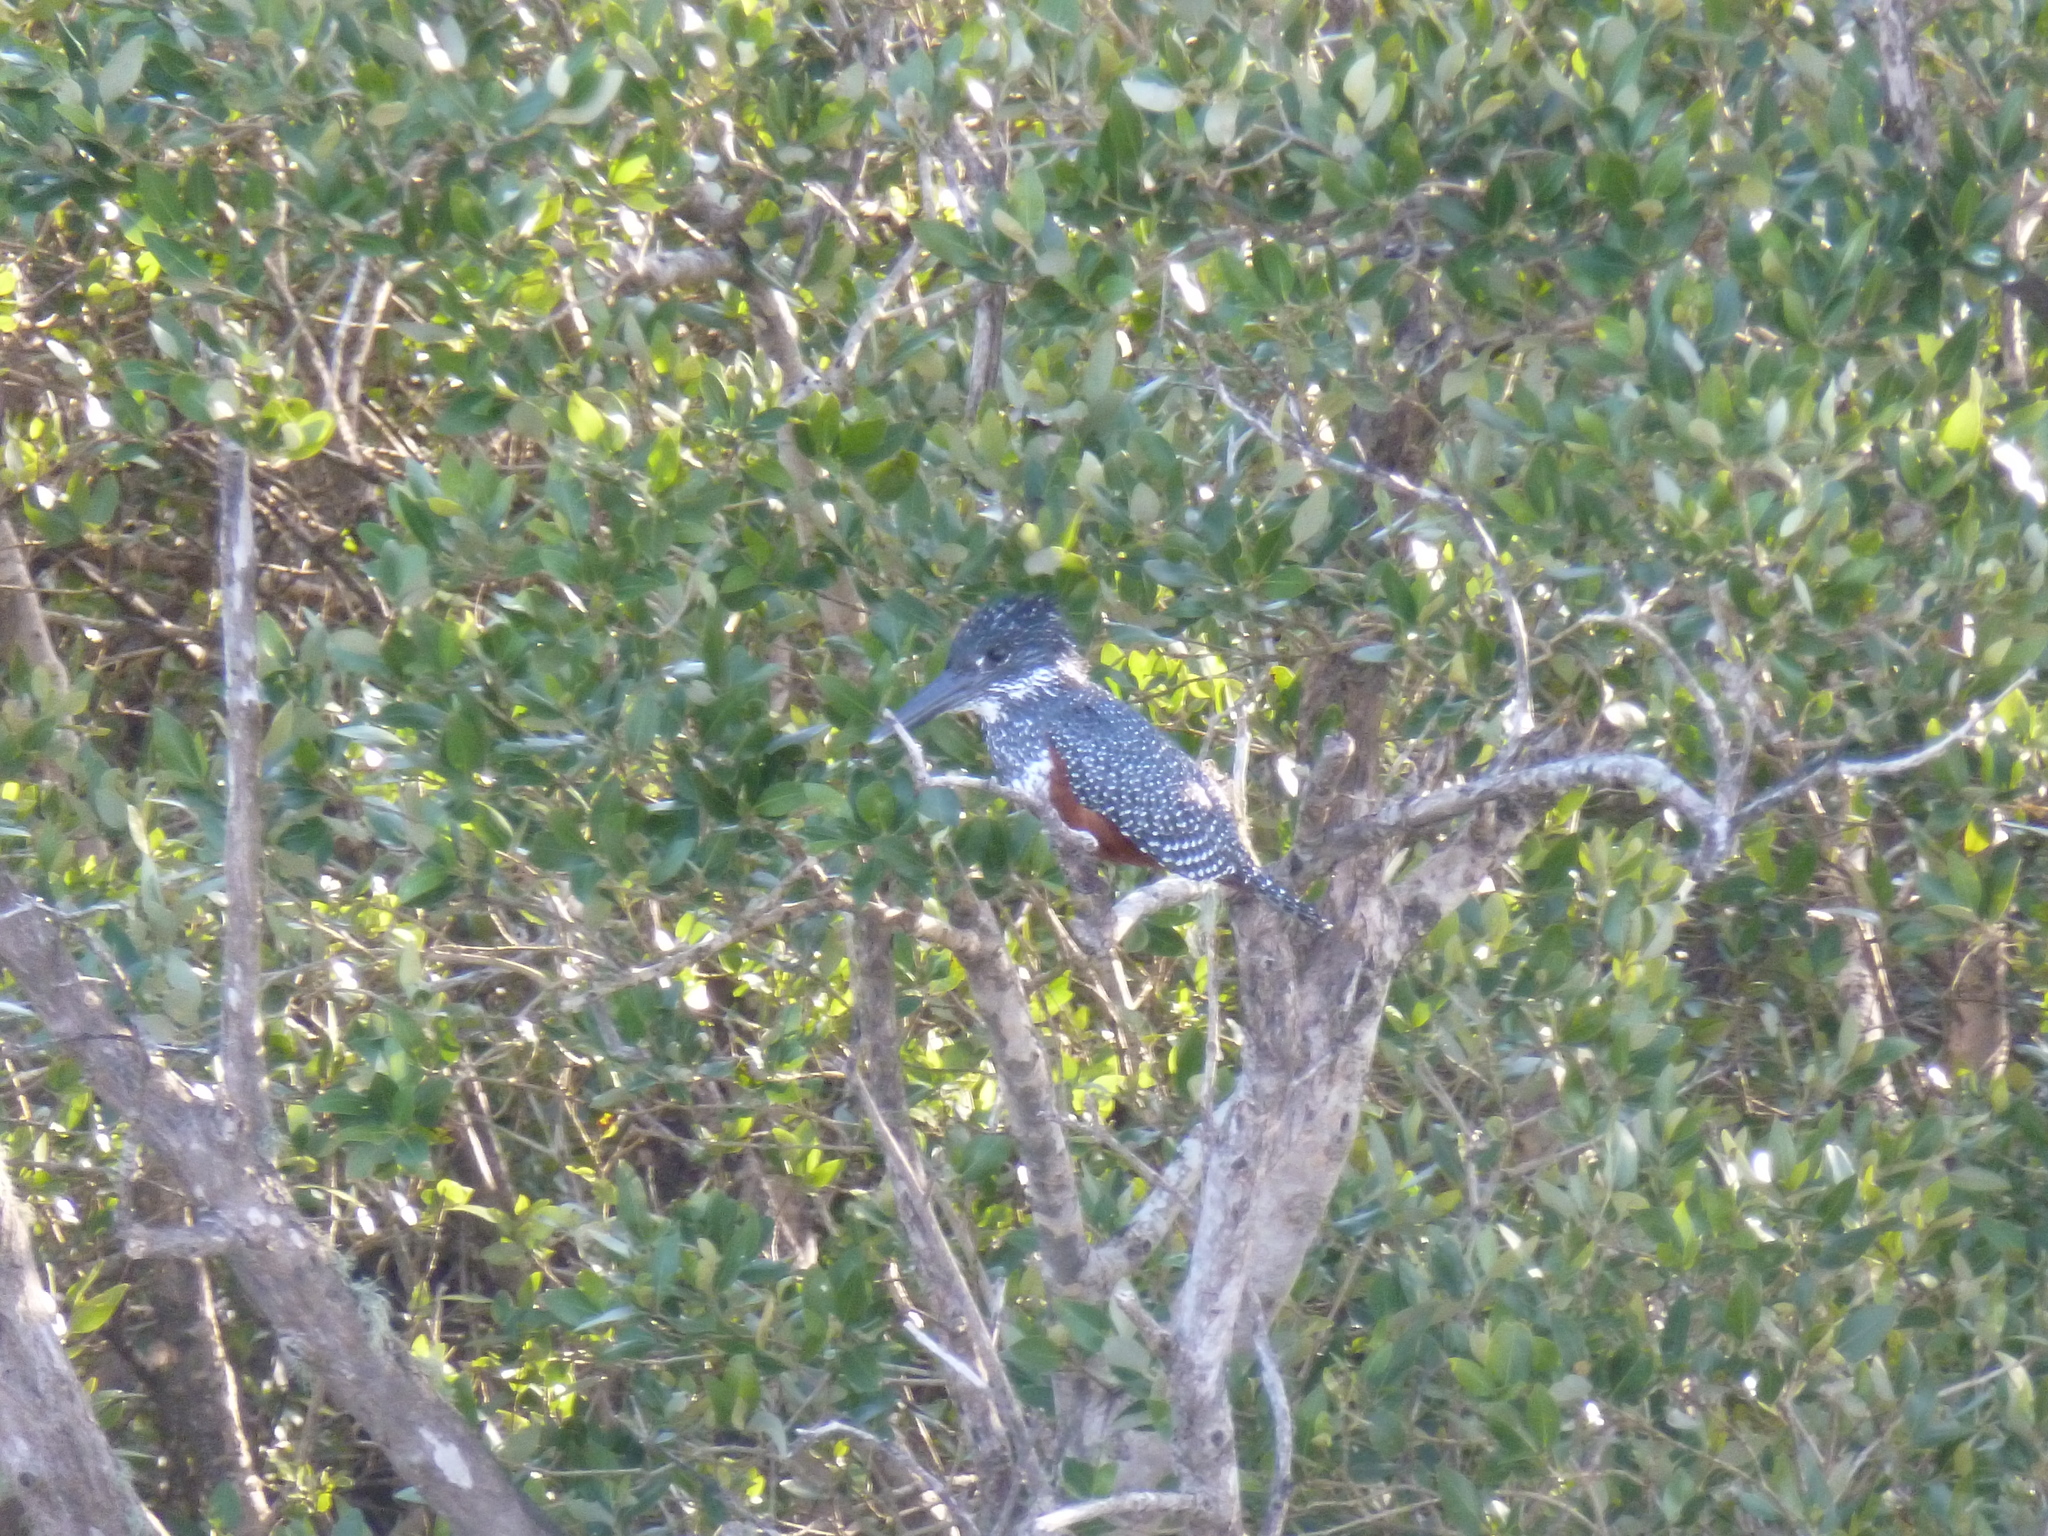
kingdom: Animalia
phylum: Chordata
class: Aves
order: Coraciiformes
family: Alcedinidae
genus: Megaceryle
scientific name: Megaceryle maxima
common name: Giant kingfisher
